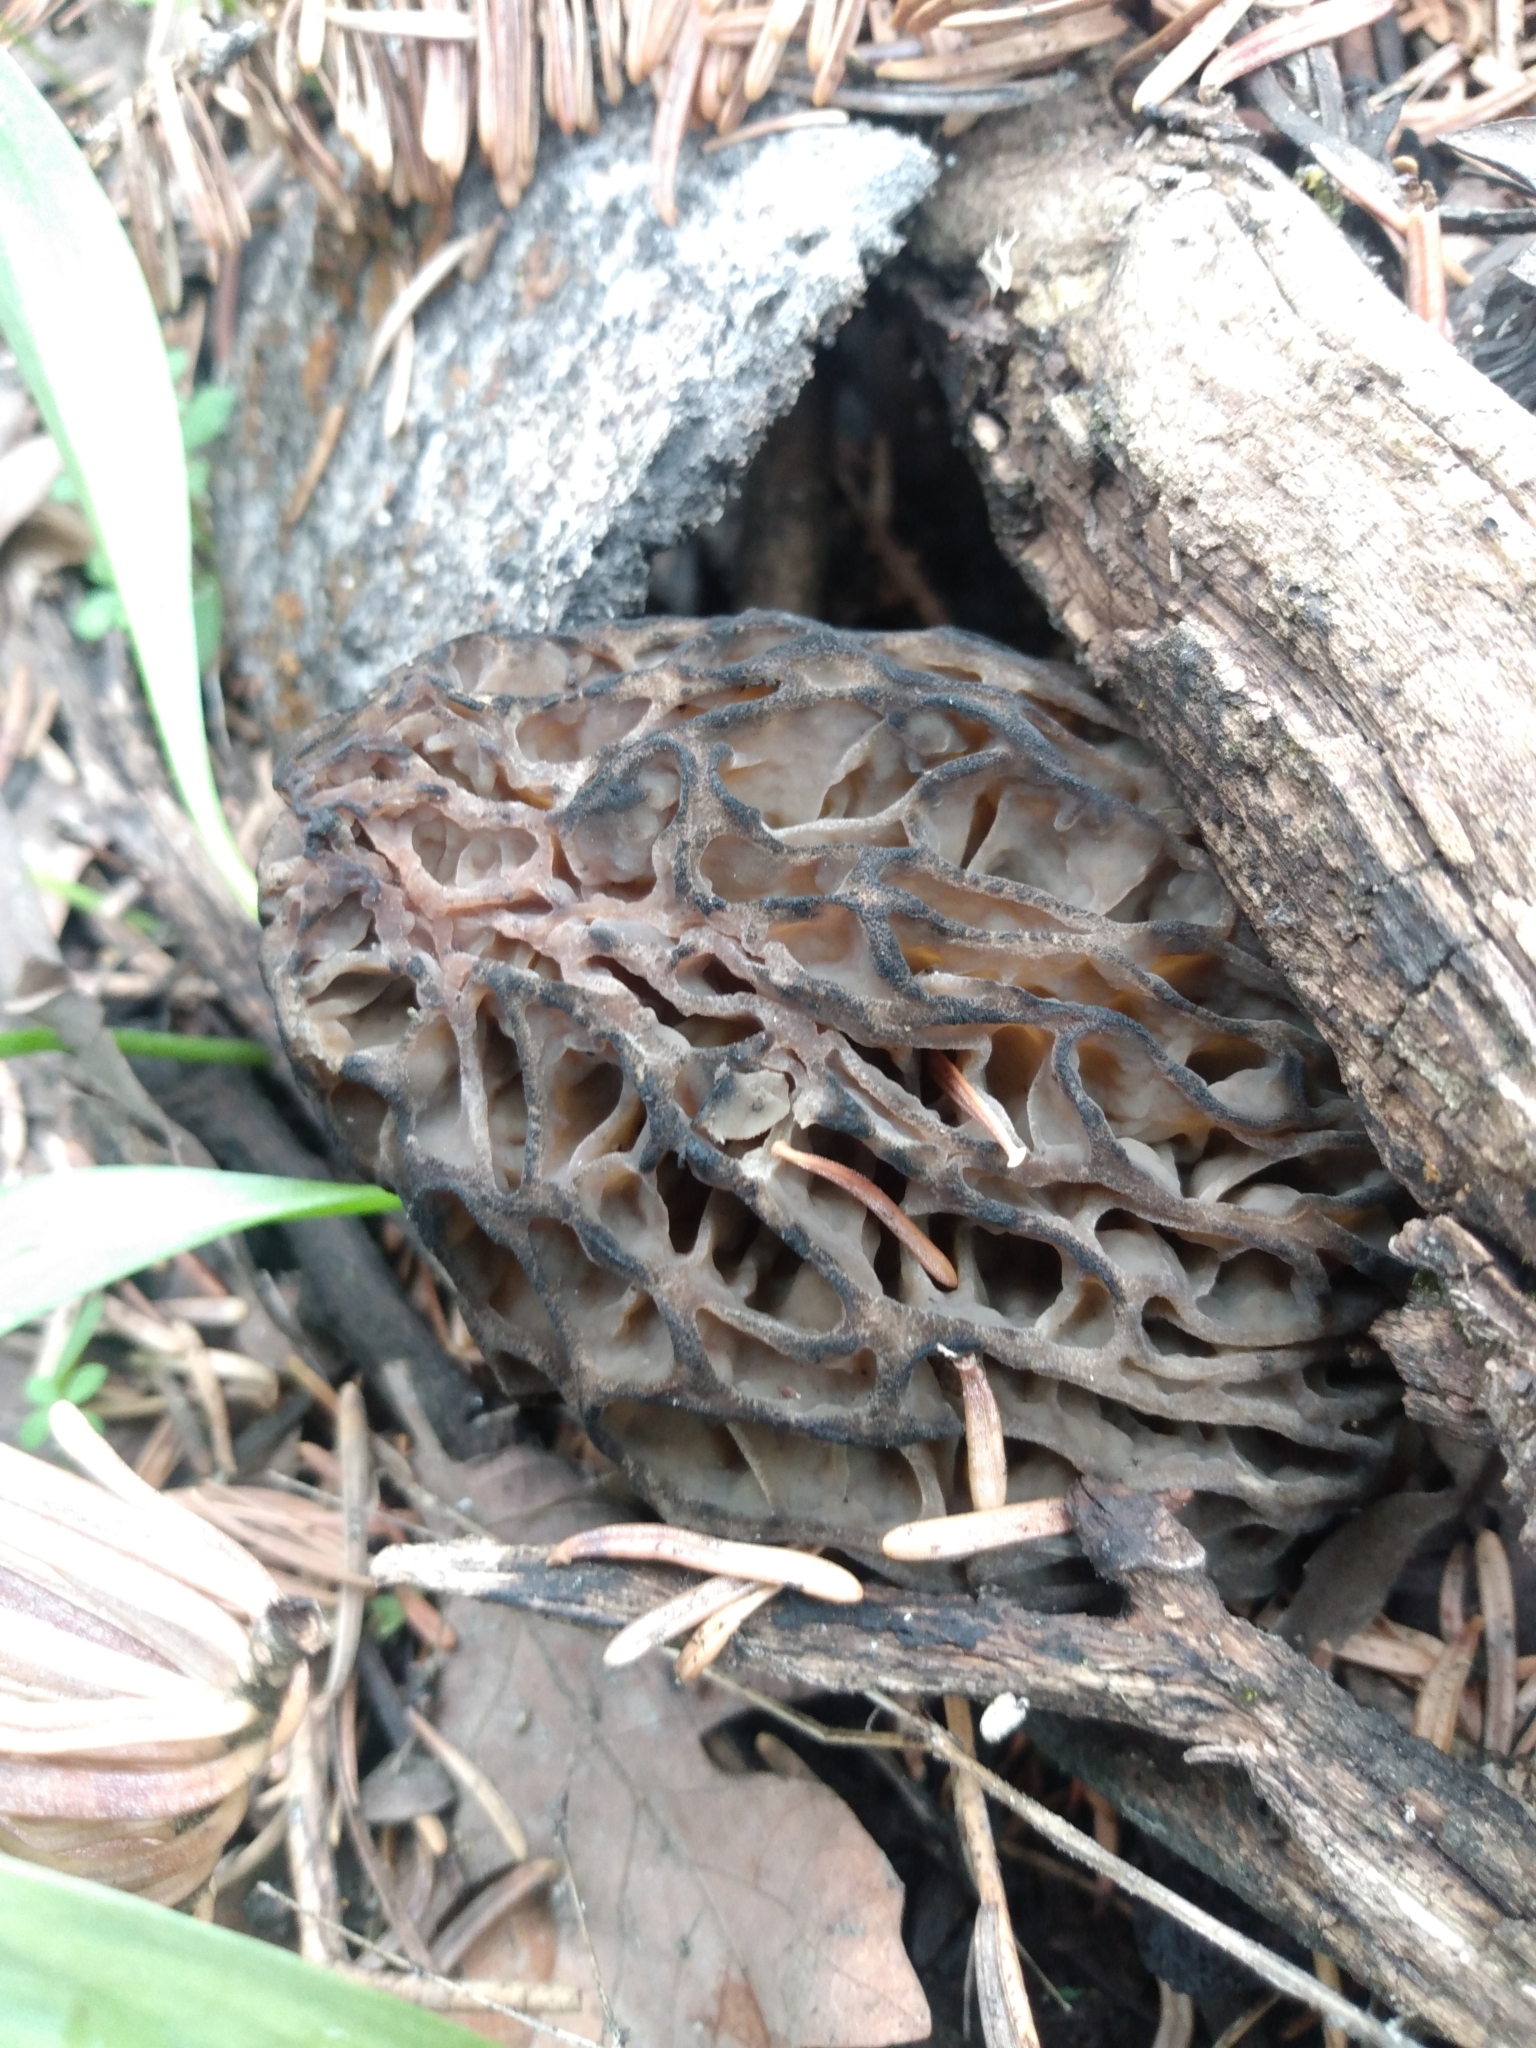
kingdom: Fungi
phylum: Ascomycota
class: Pezizomycetes
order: Pezizales
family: Morchellaceae
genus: Morchella
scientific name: Morchella snyderi
